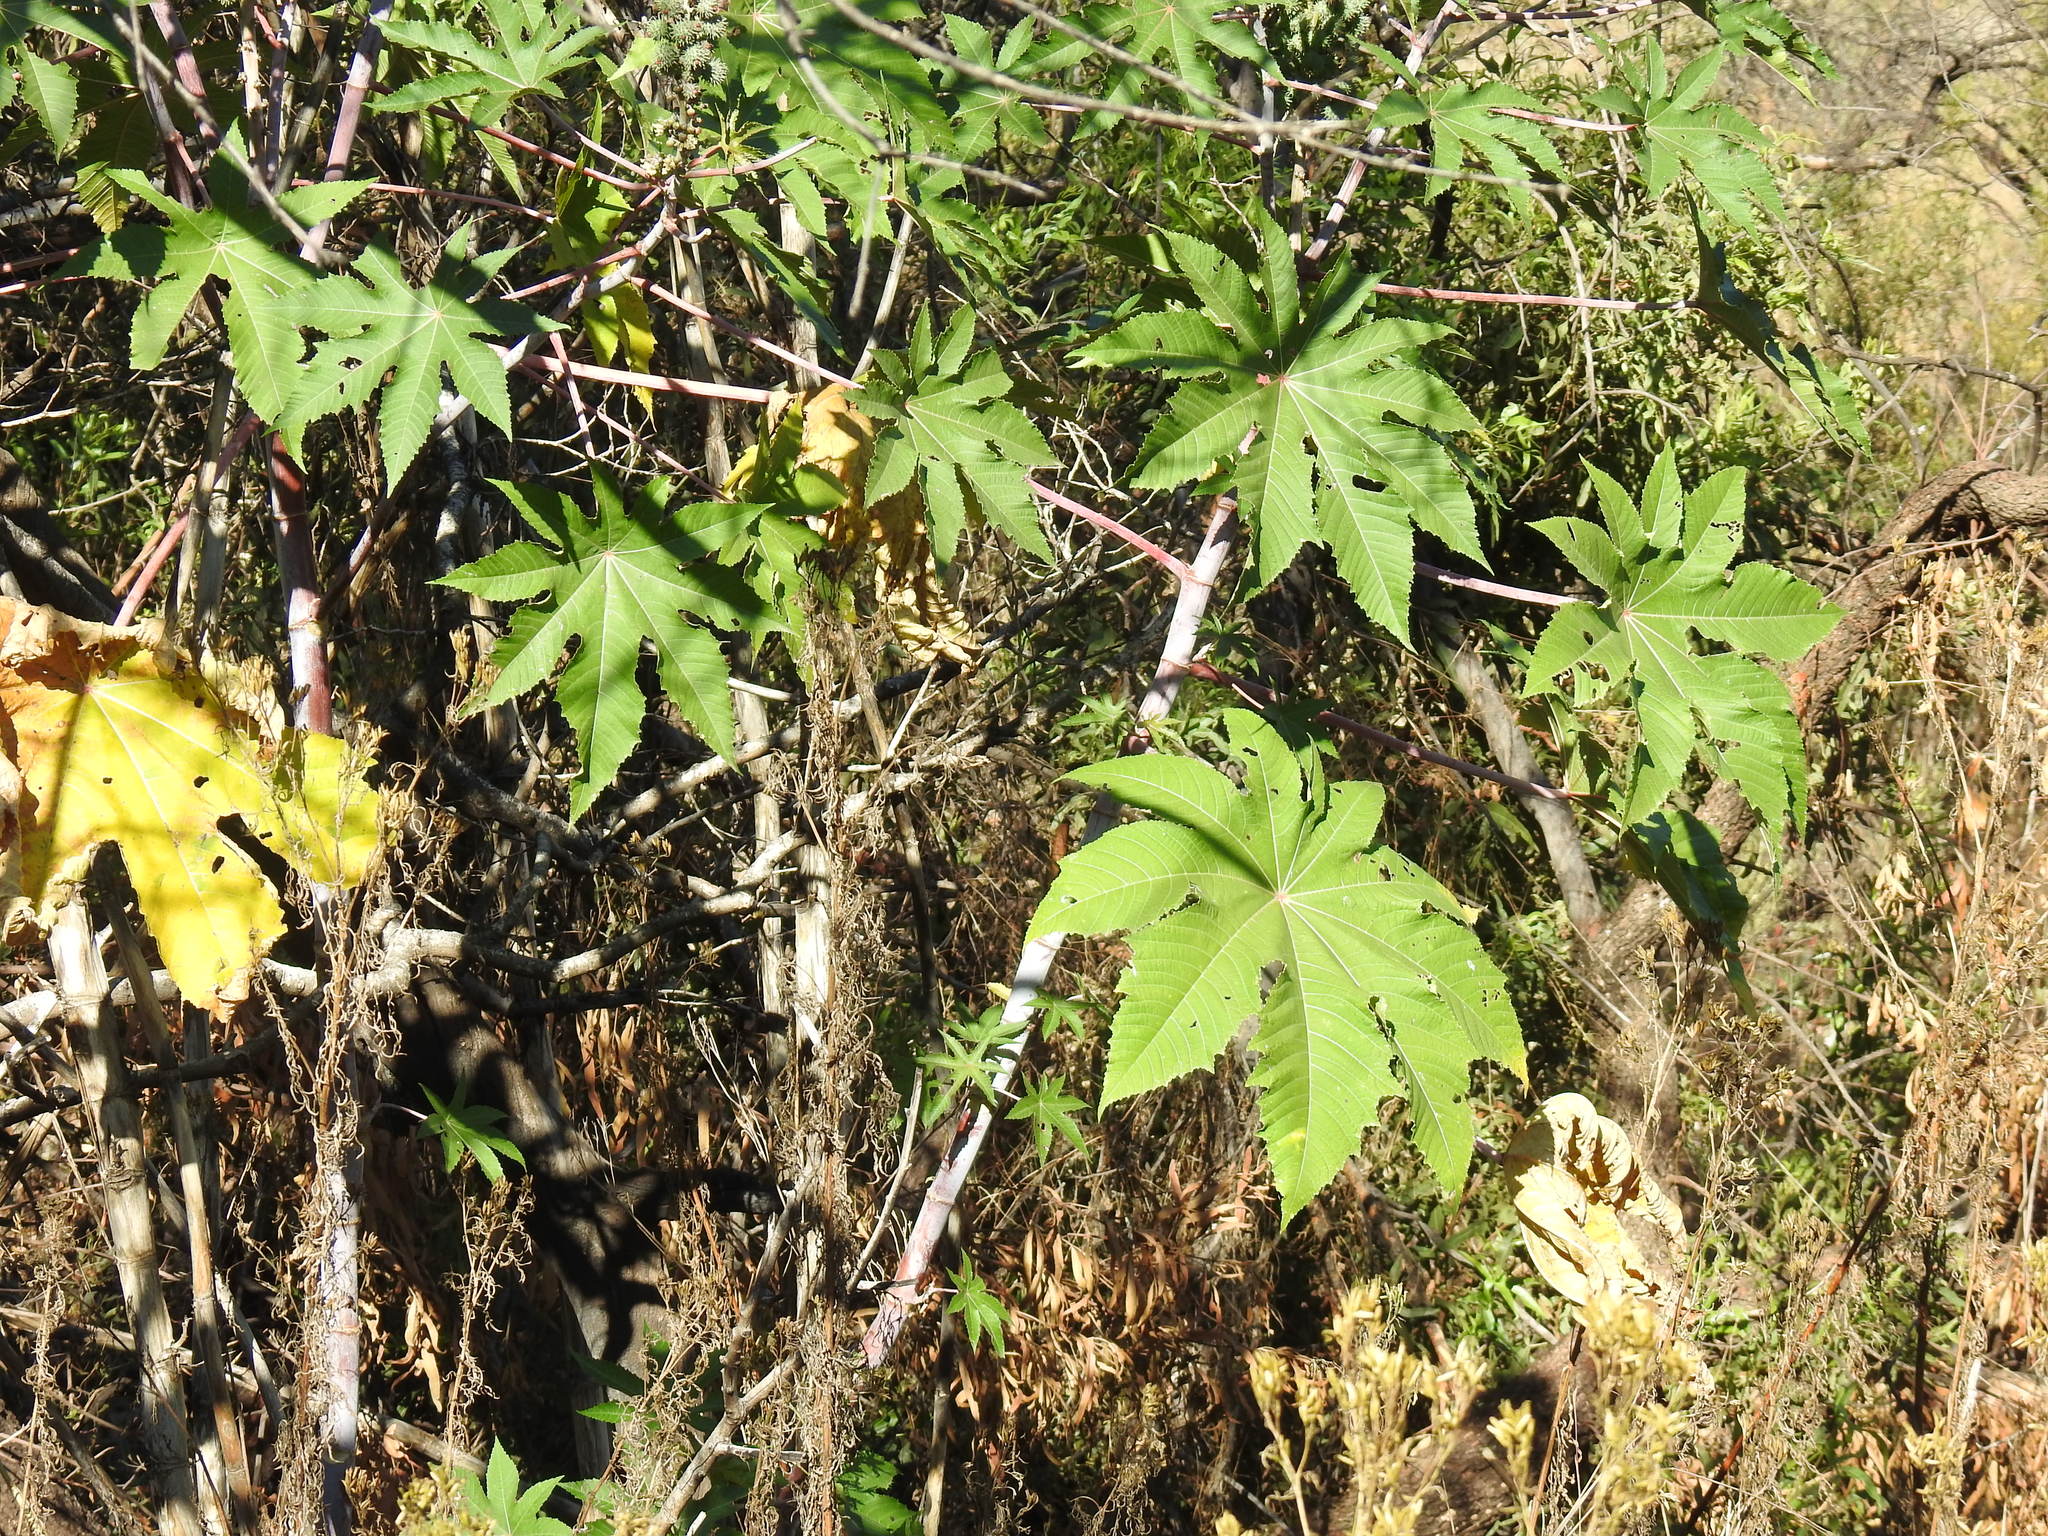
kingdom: Plantae
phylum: Tracheophyta
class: Magnoliopsida
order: Malpighiales
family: Euphorbiaceae
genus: Ricinus
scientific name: Ricinus communis
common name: Castor-oil-plant
